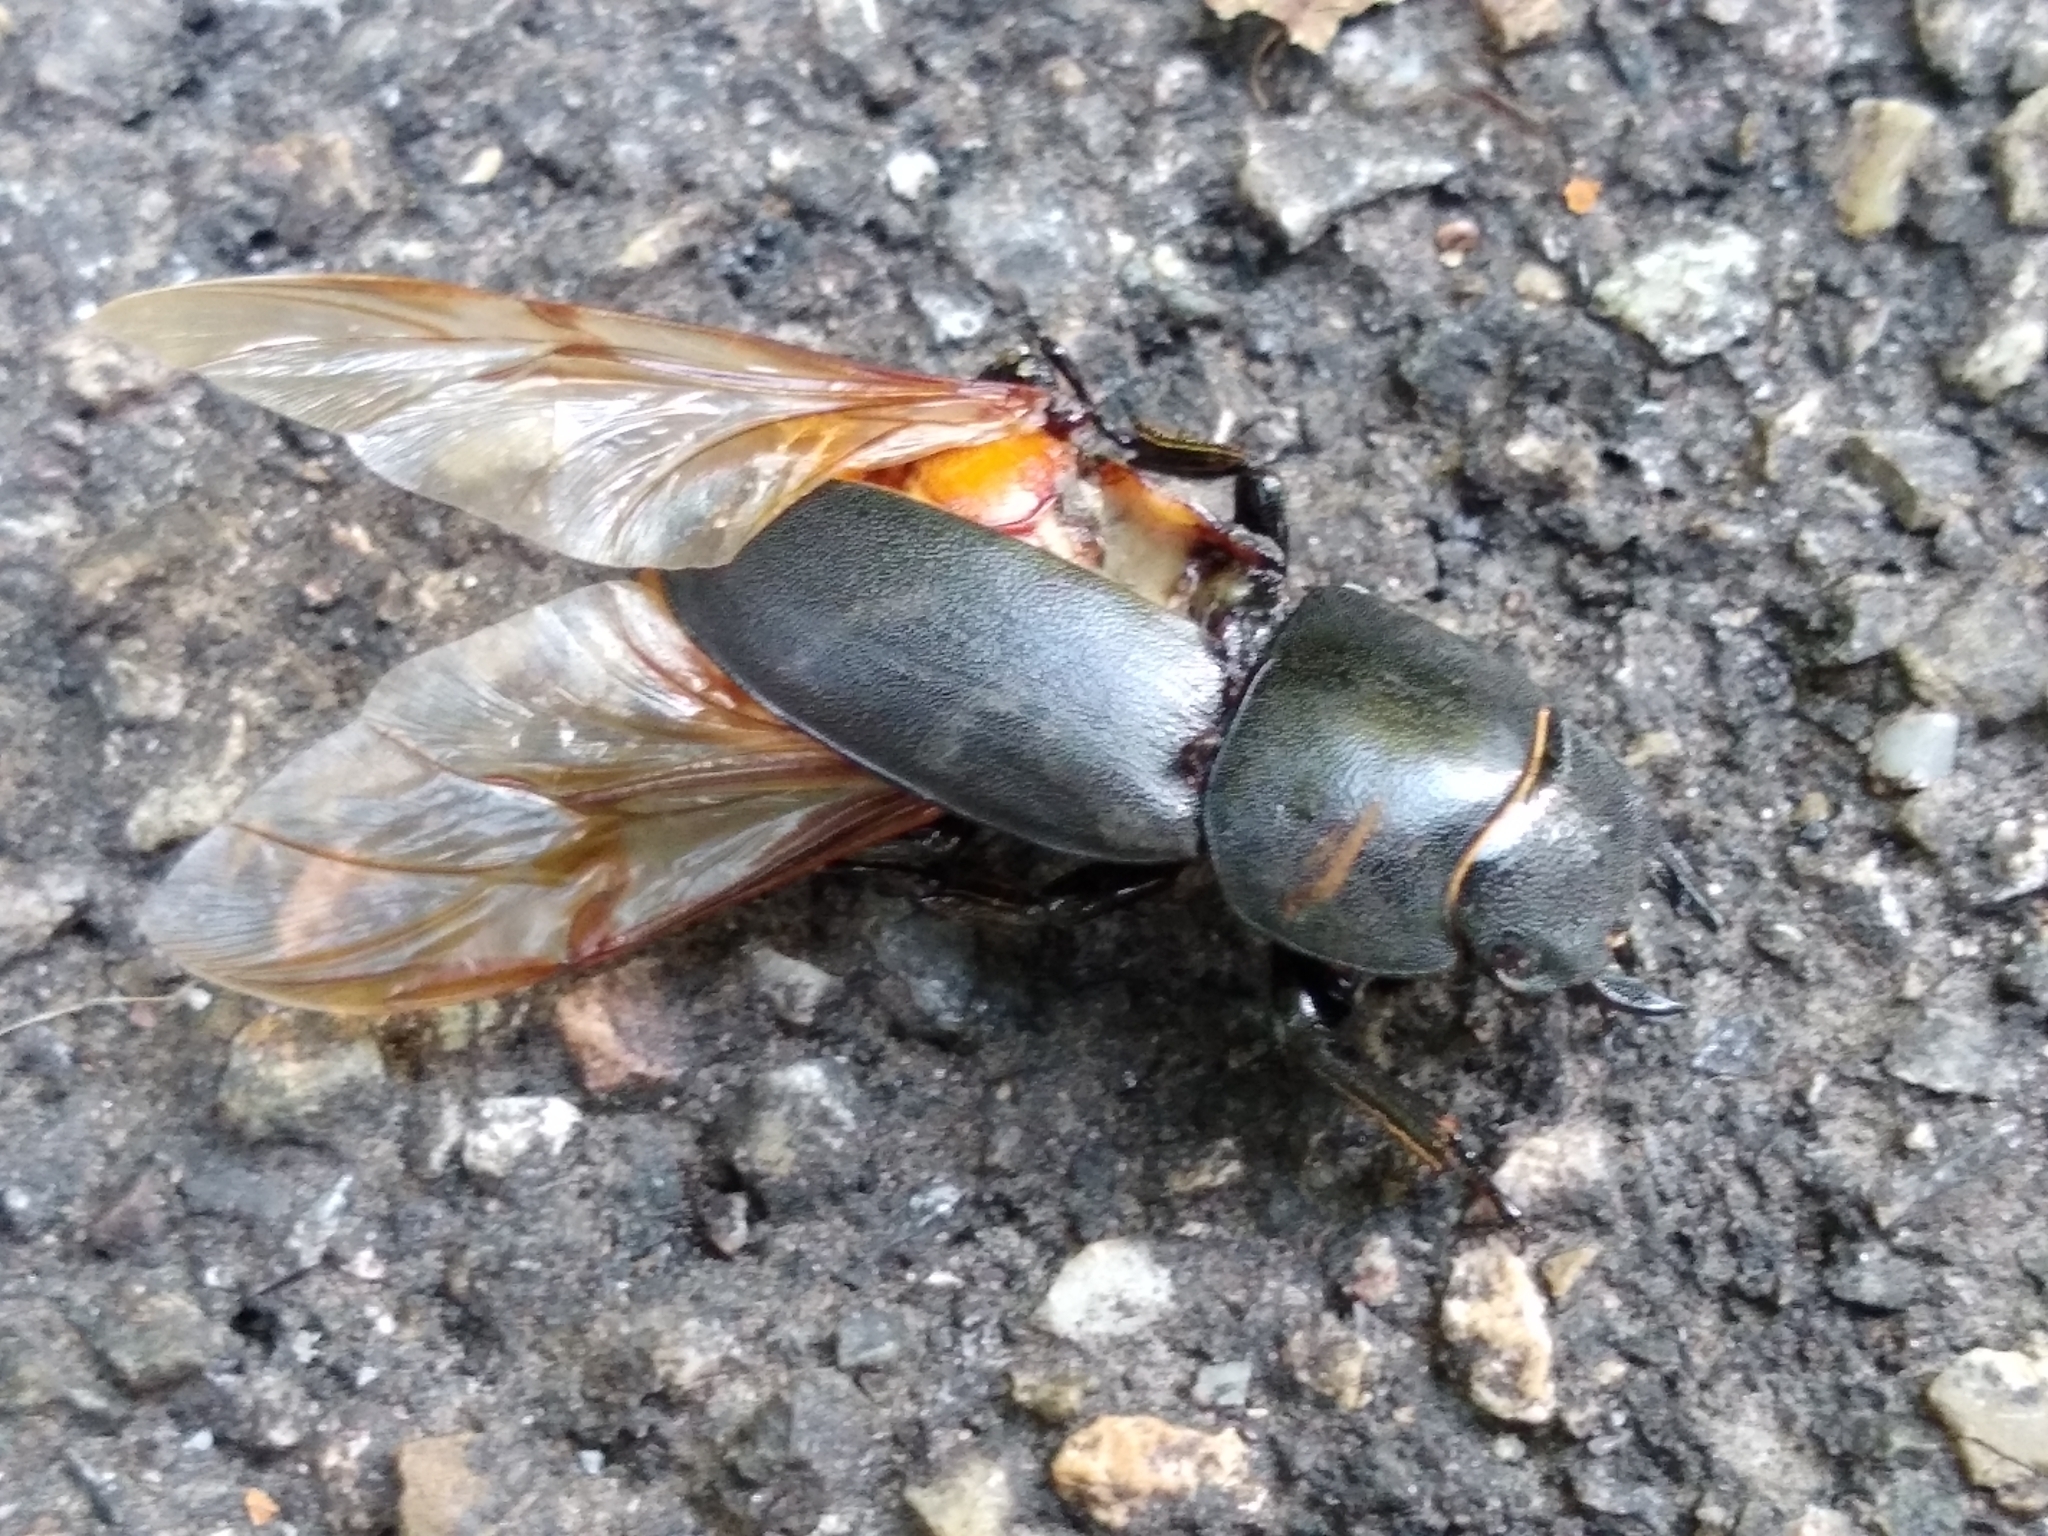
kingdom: Animalia
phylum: Arthropoda
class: Insecta
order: Coleoptera
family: Lucanidae
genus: Dorcus
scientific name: Dorcus parallelipipedus
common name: Lesser stag beetle
